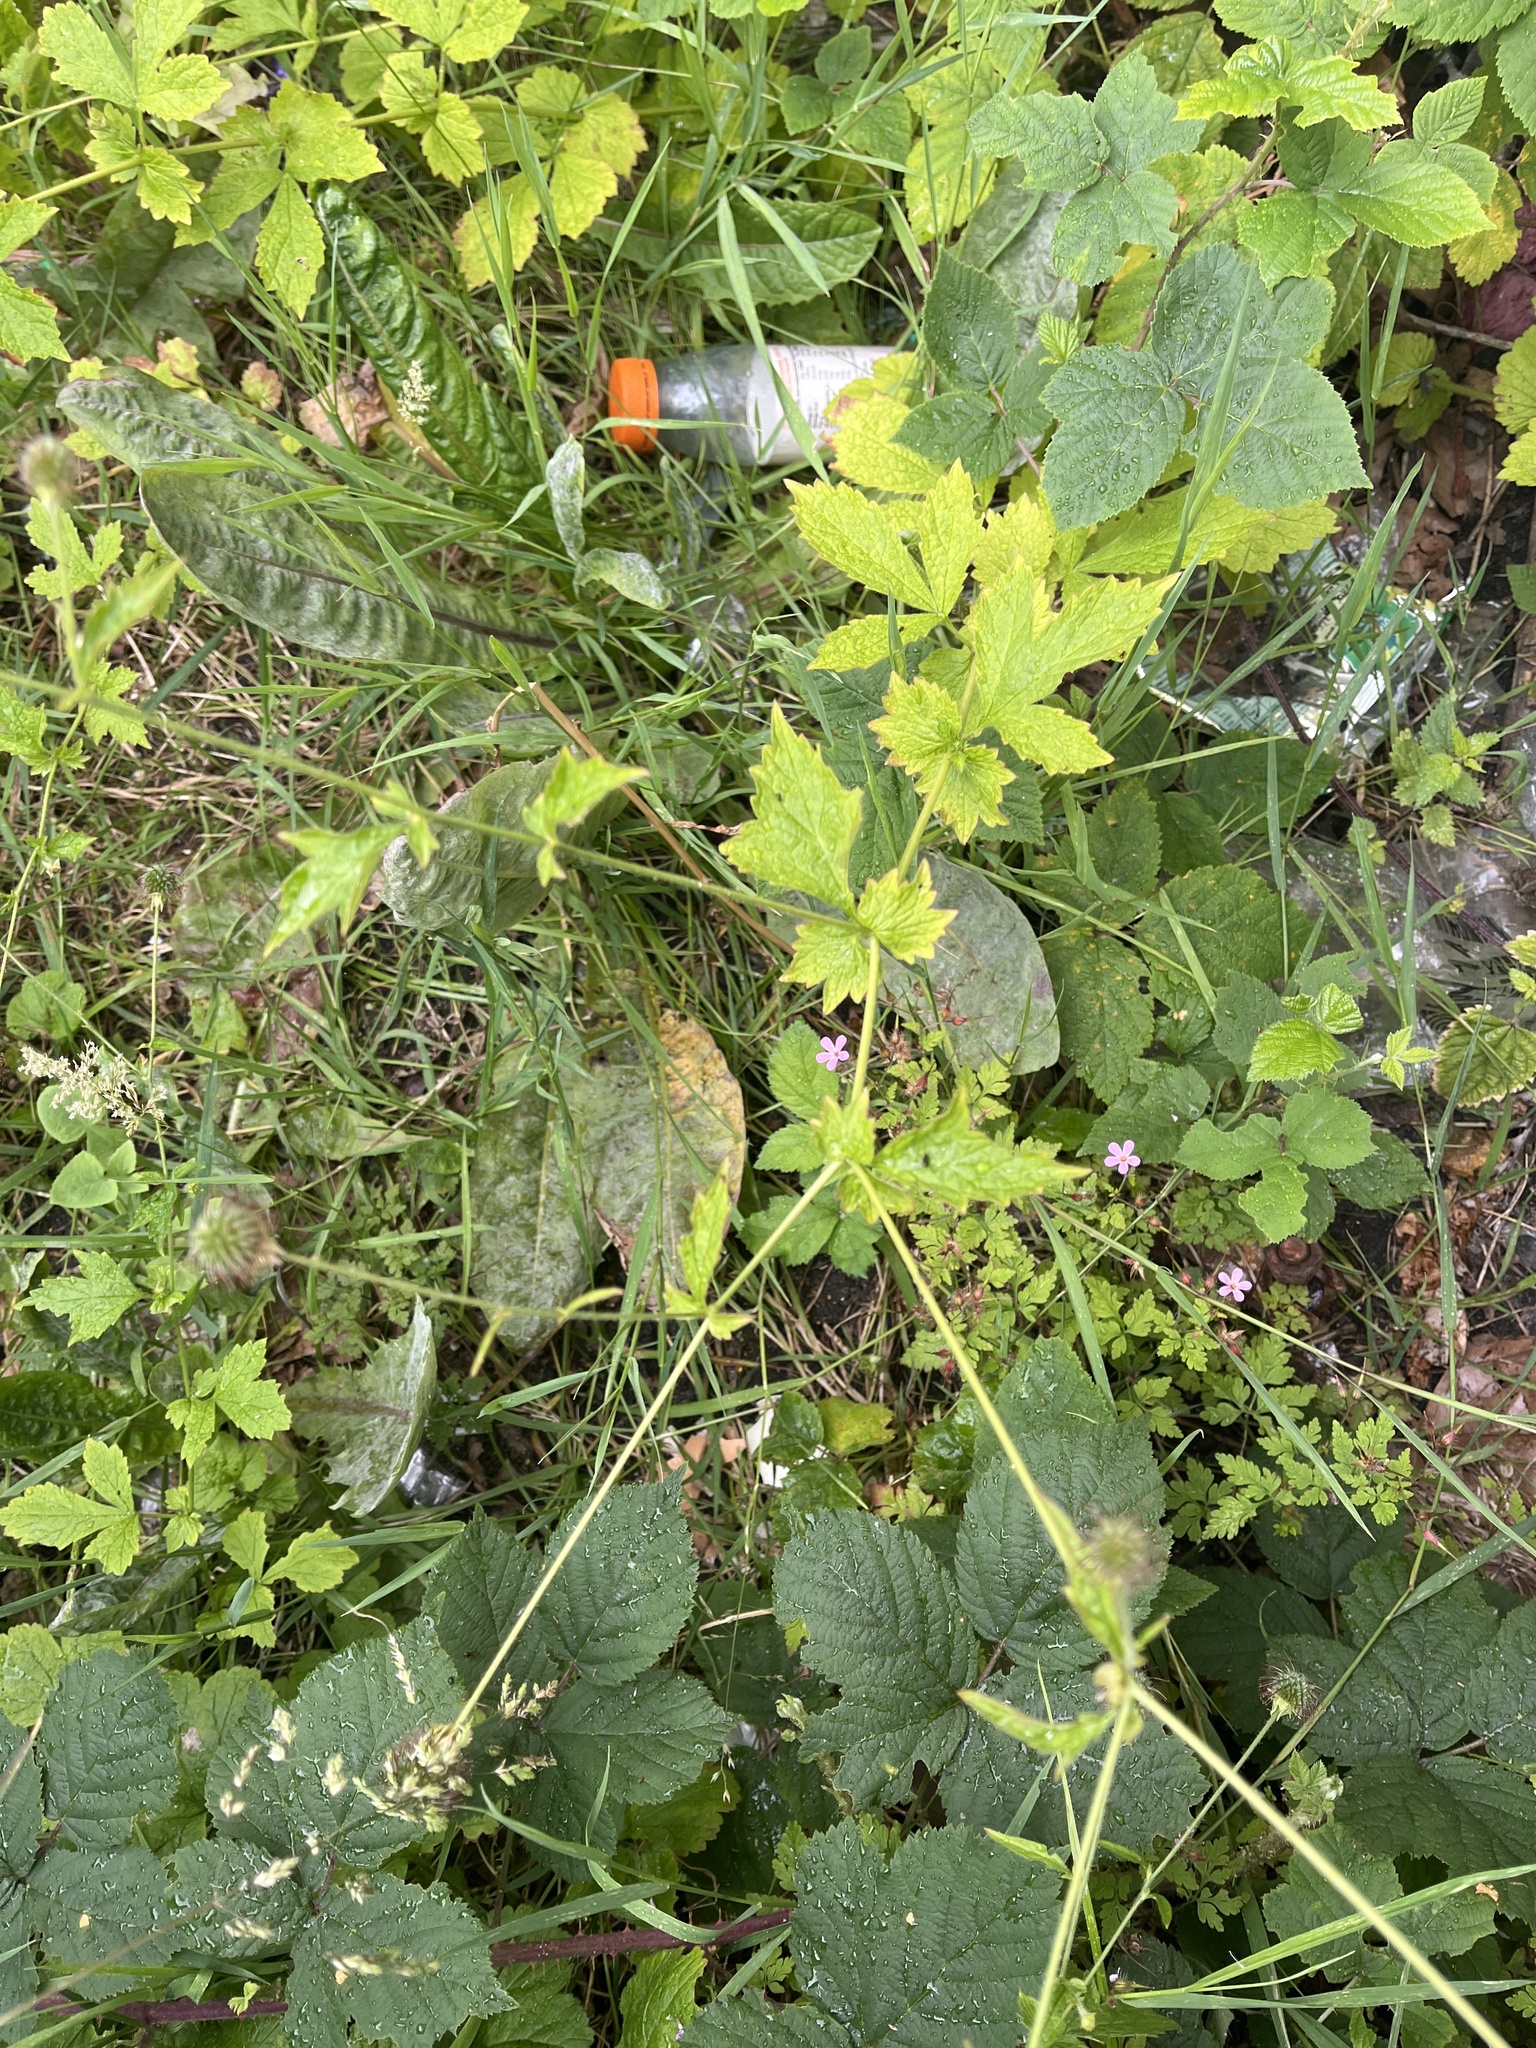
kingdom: Plantae
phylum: Tracheophyta
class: Magnoliopsida
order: Rosales
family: Rosaceae
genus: Geum
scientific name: Geum urbanum
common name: Wood avens
